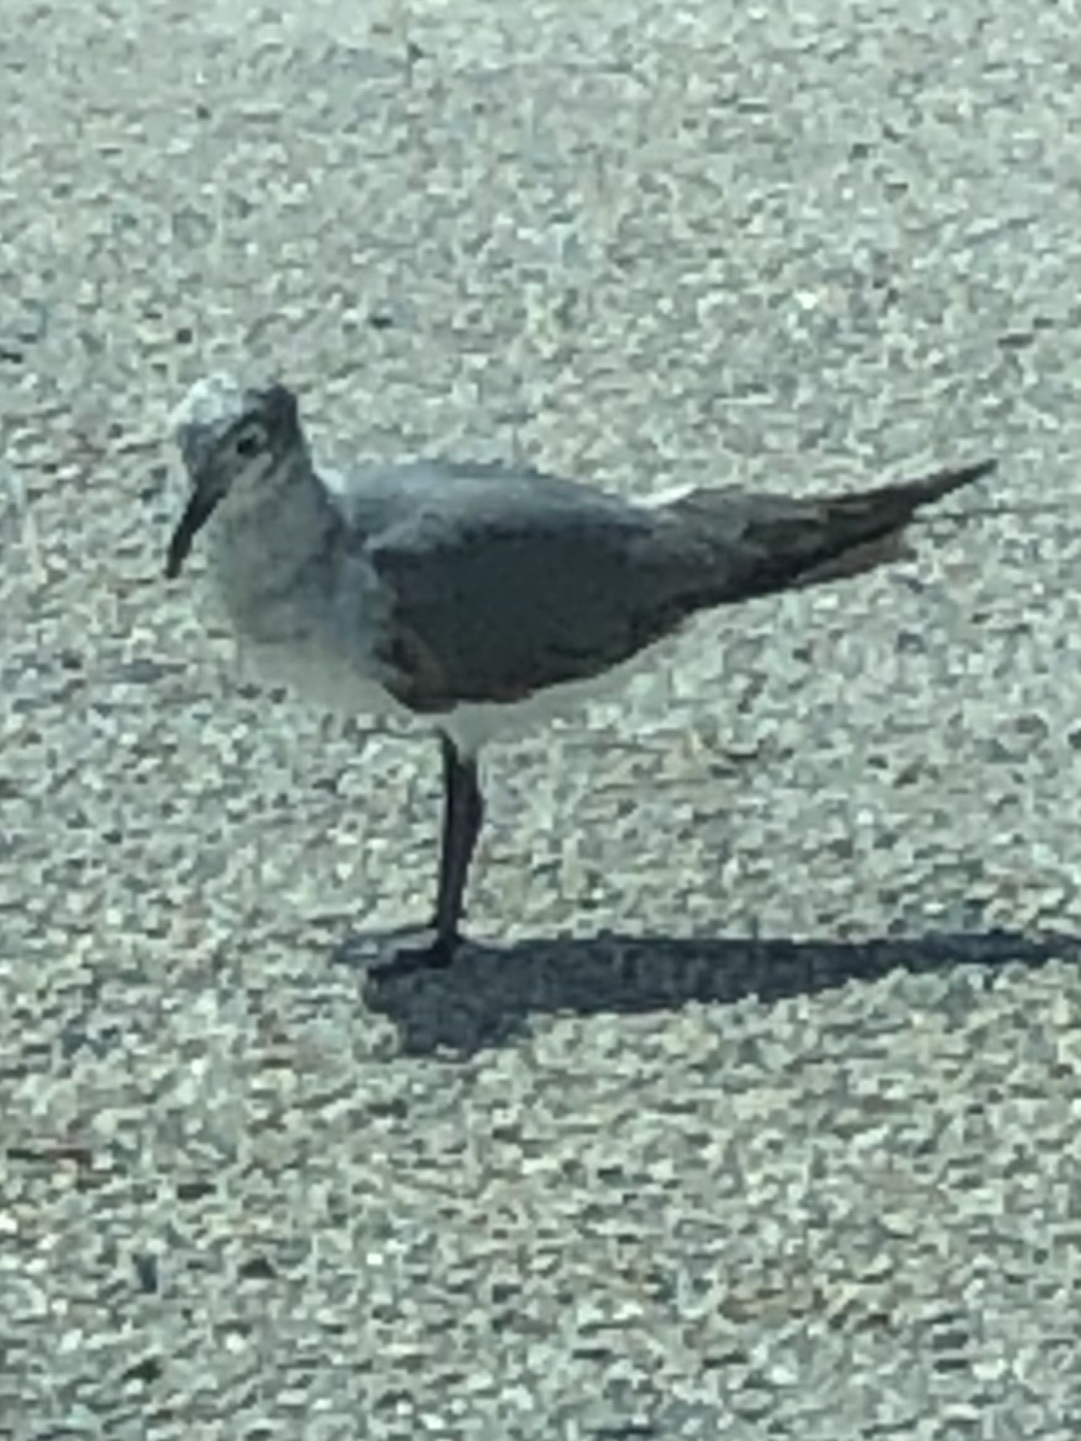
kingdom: Animalia
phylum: Chordata
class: Aves
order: Charadriiformes
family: Laridae
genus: Leucophaeus
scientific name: Leucophaeus atricilla
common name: Laughing gull
